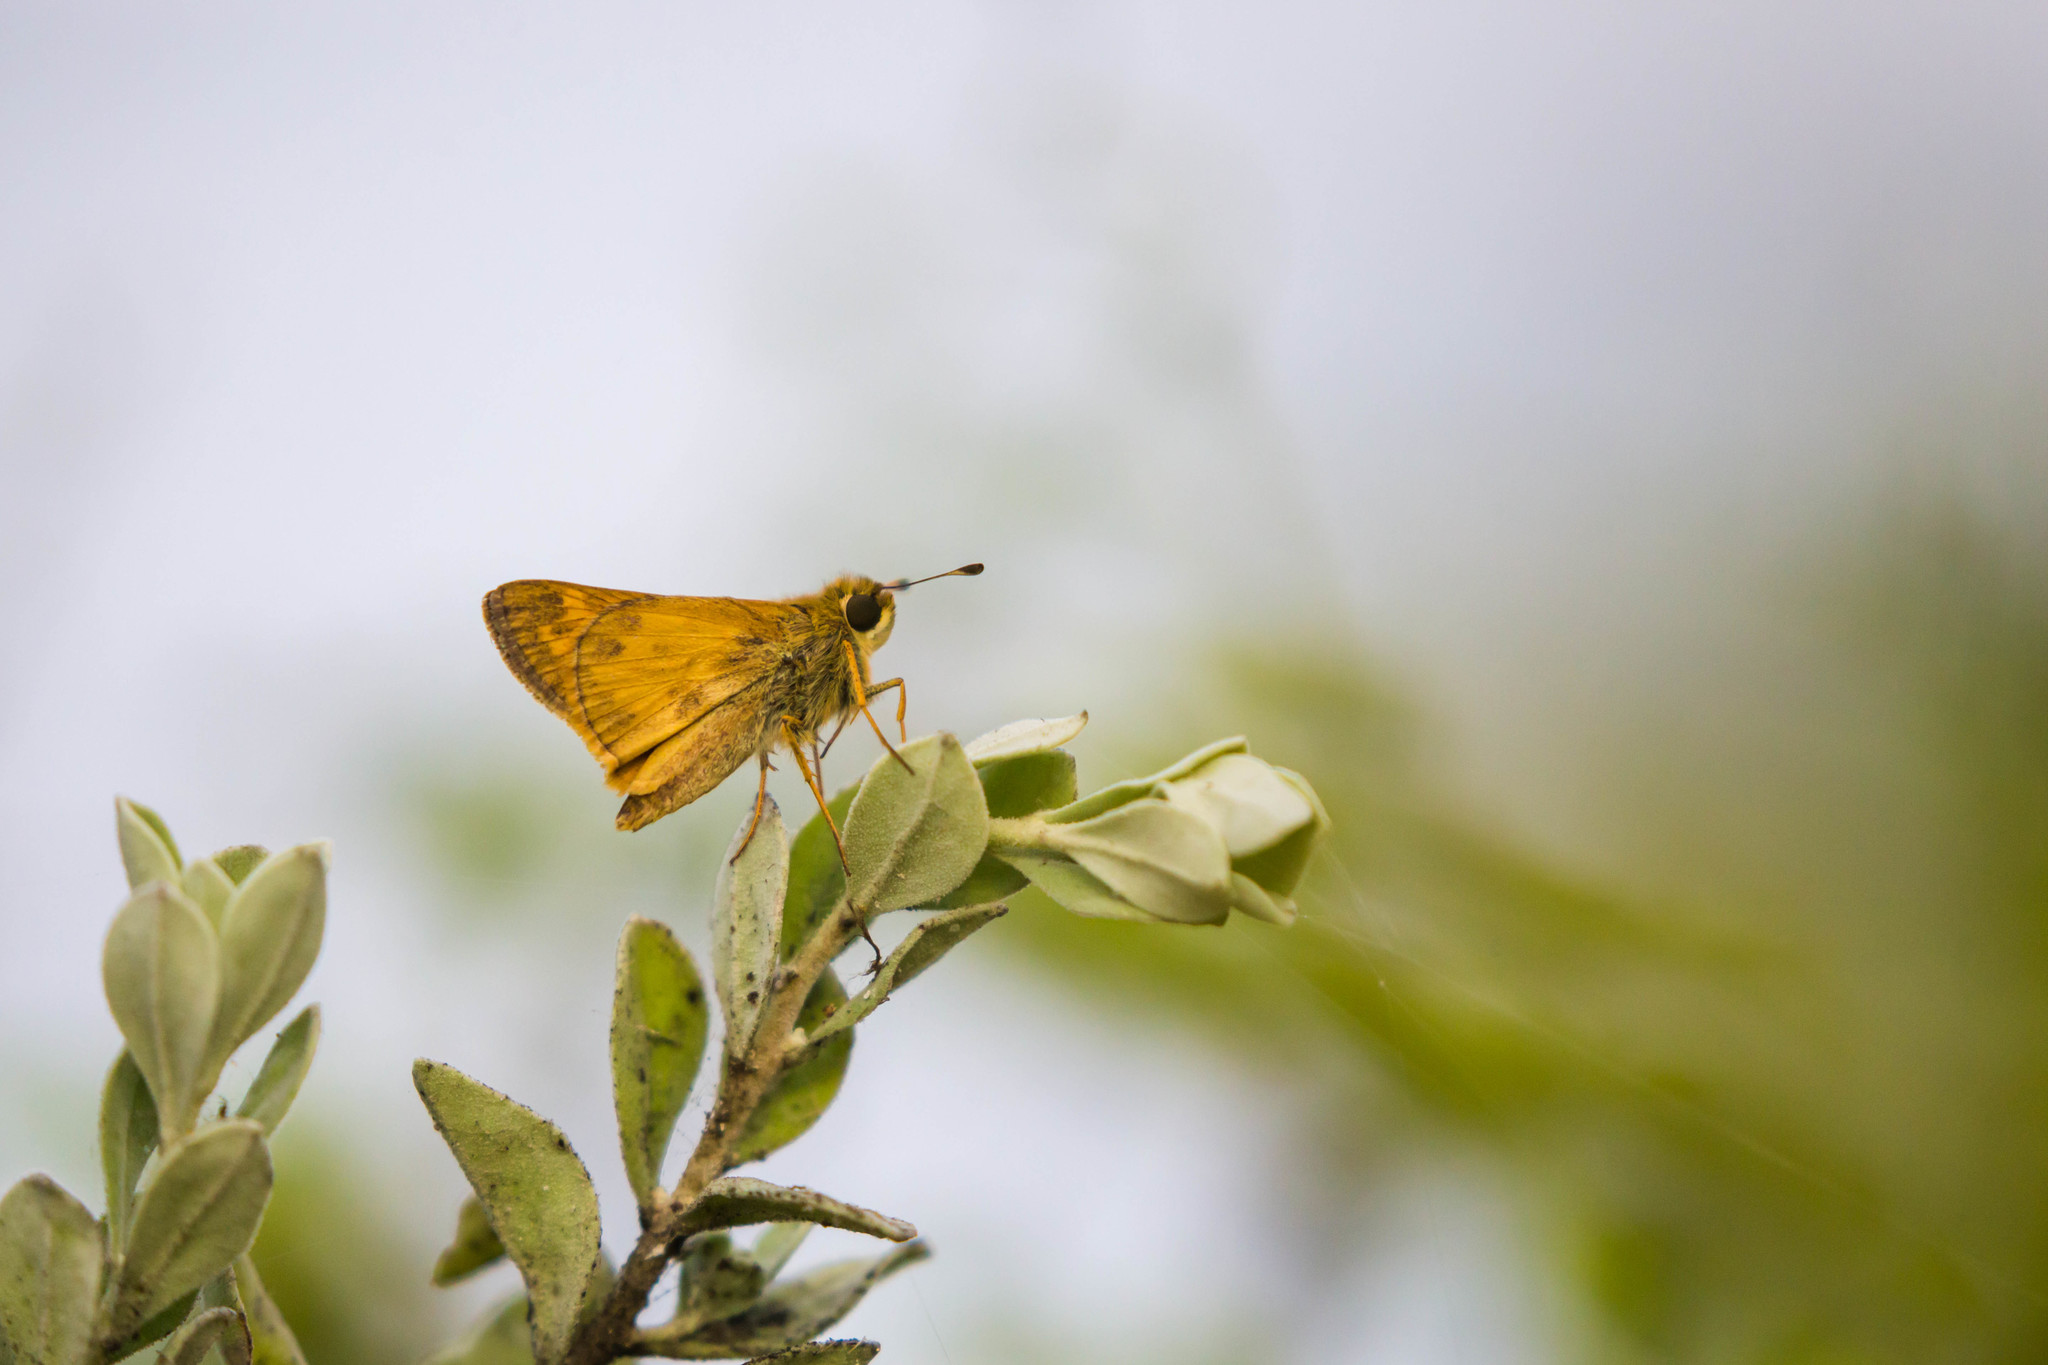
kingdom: Animalia
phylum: Arthropoda
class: Insecta
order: Lepidoptera
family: Hesperiidae
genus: Atalopedes
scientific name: Atalopedes
